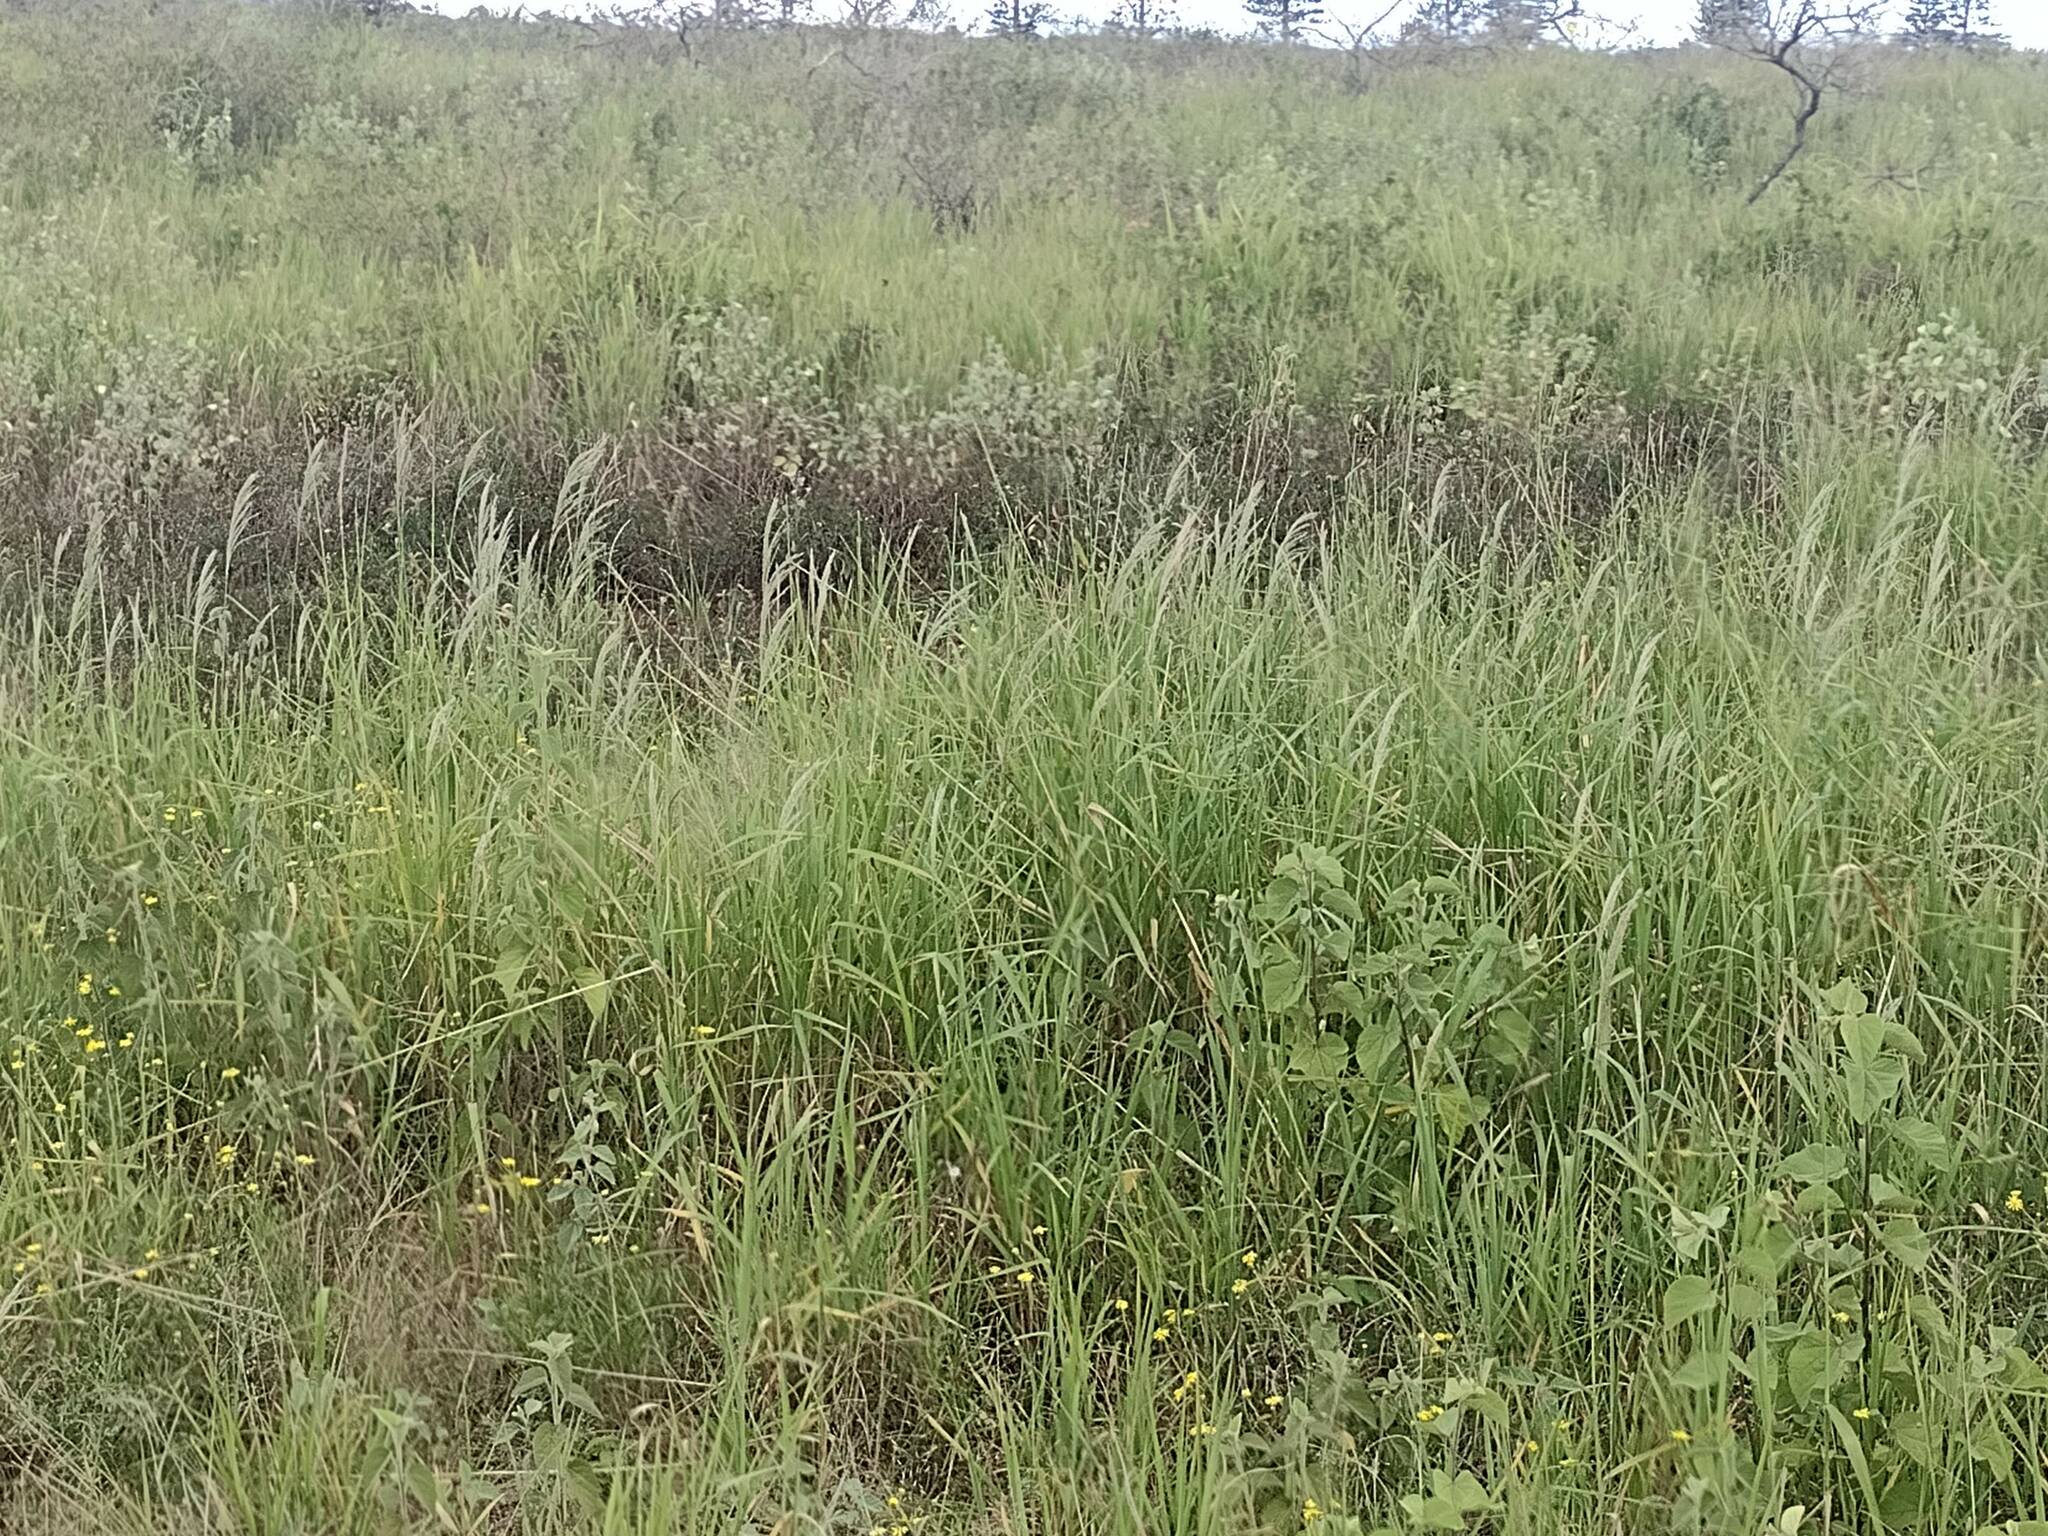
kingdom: Plantae
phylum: Tracheophyta
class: Liliopsida
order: Poales
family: Poaceae
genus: Digitaria
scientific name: Digitaria insularis
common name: Sourgrass
